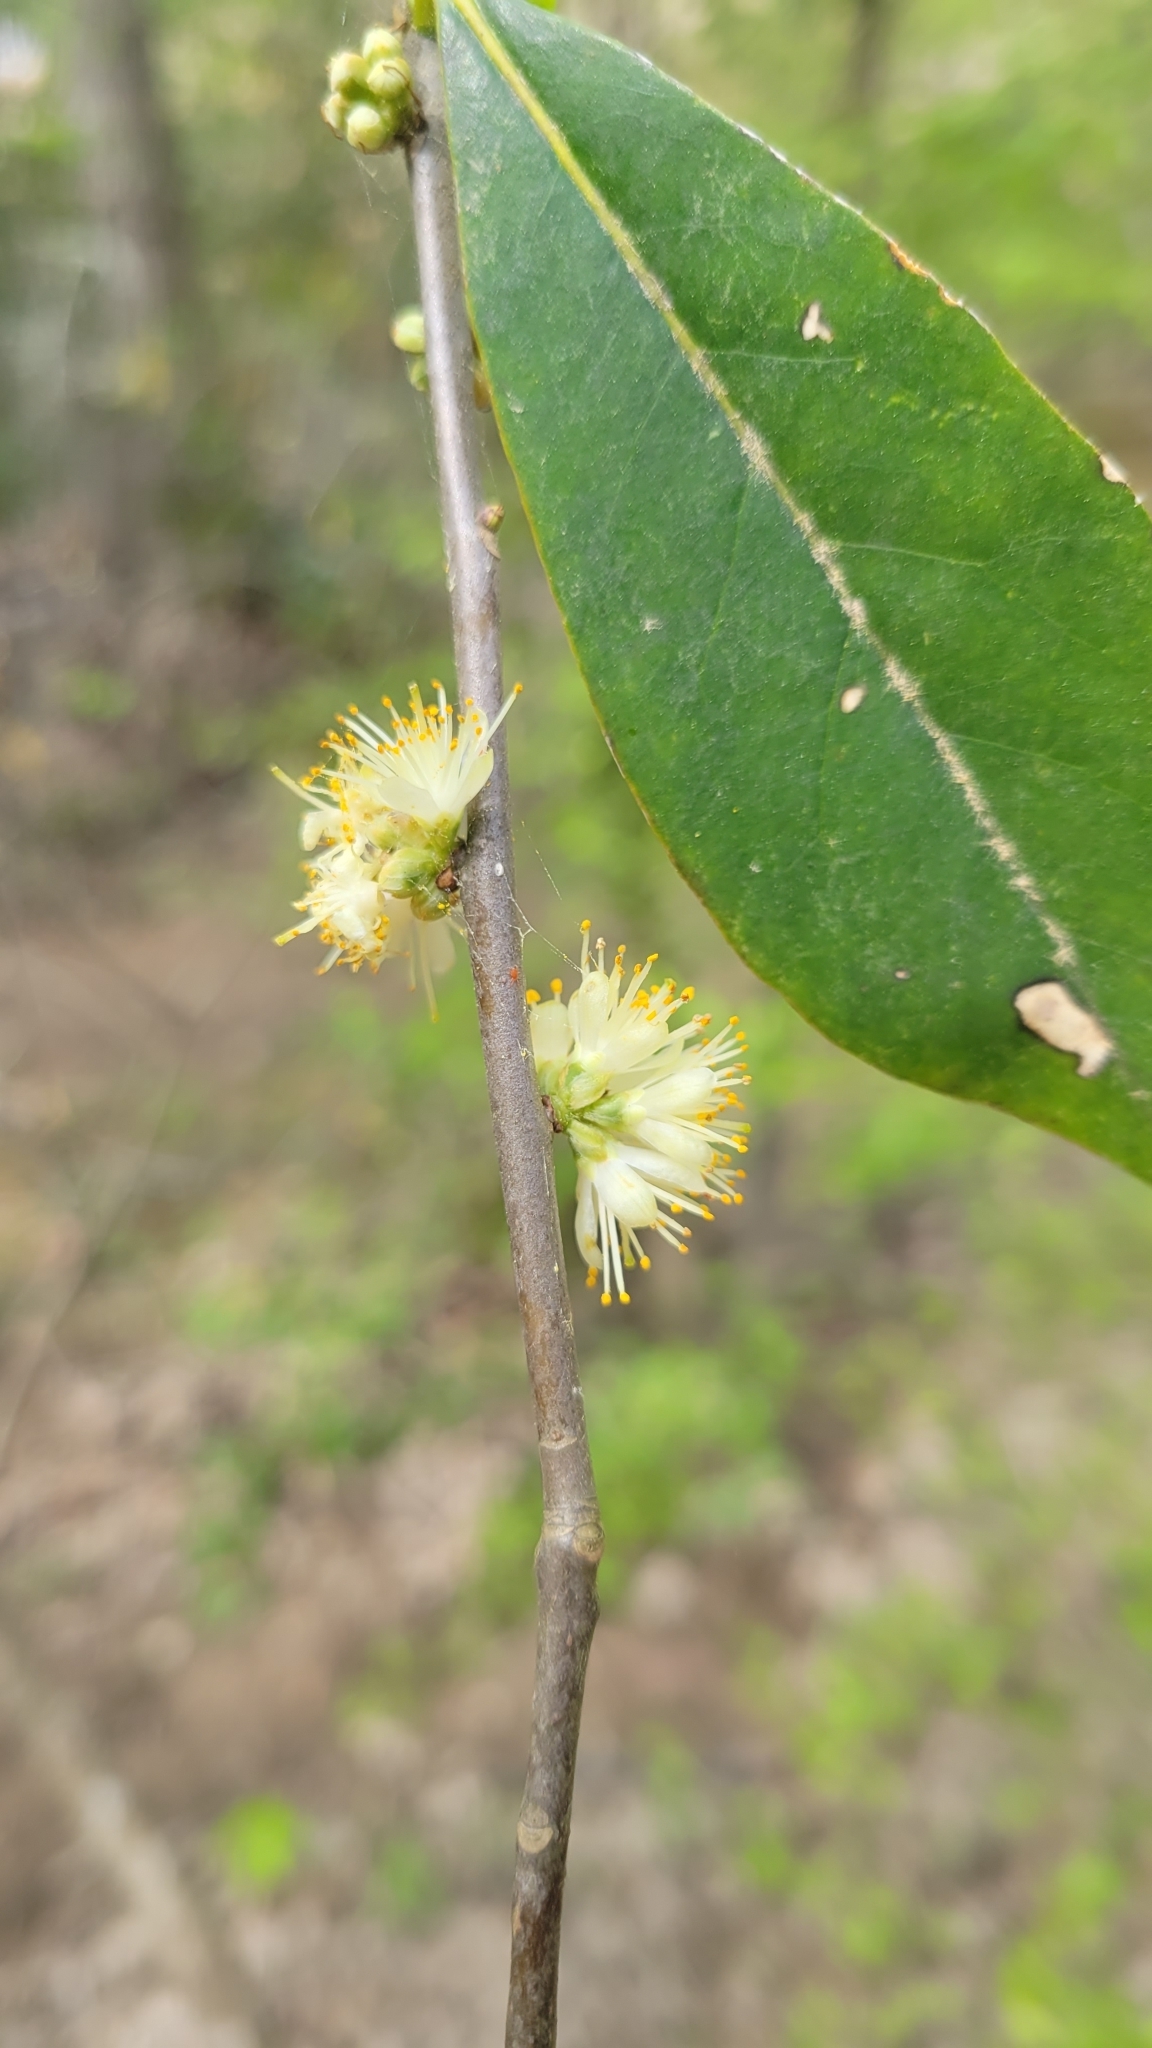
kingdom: Plantae
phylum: Tracheophyta
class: Magnoliopsida
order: Ericales
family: Symplocaceae
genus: Symplocos
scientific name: Symplocos tinctoria
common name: Horse-sugar
